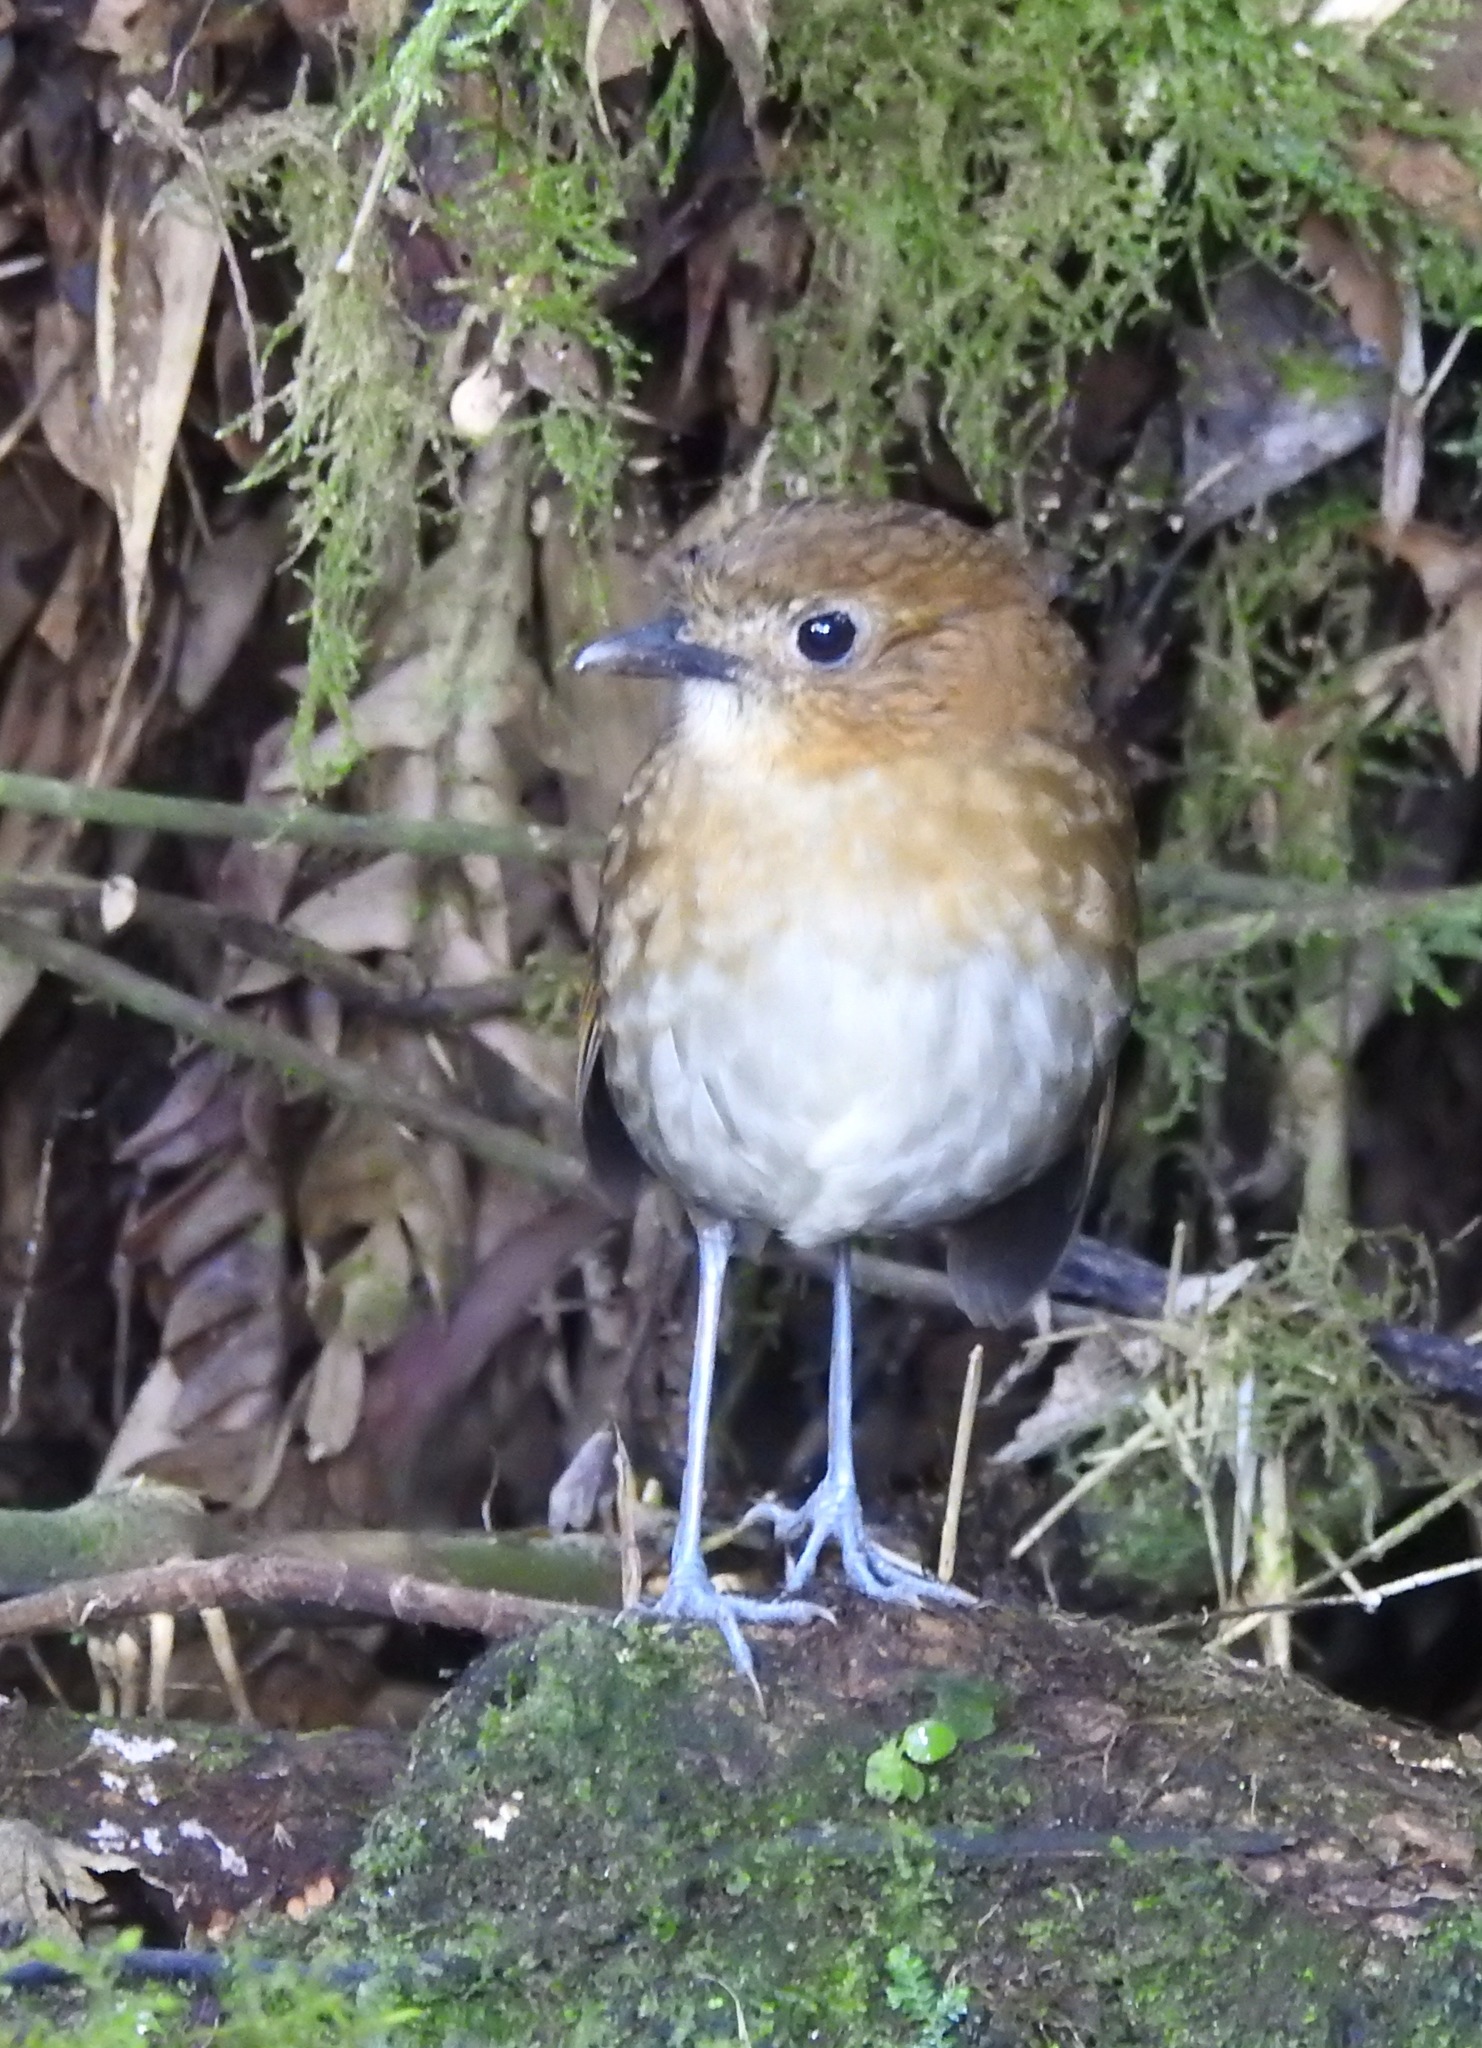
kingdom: Animalia
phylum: Chordata
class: Aves
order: Passeriformes
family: Grallariidae
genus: Grallaria
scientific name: Grallaria milleri
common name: Brown-banded antpitta
